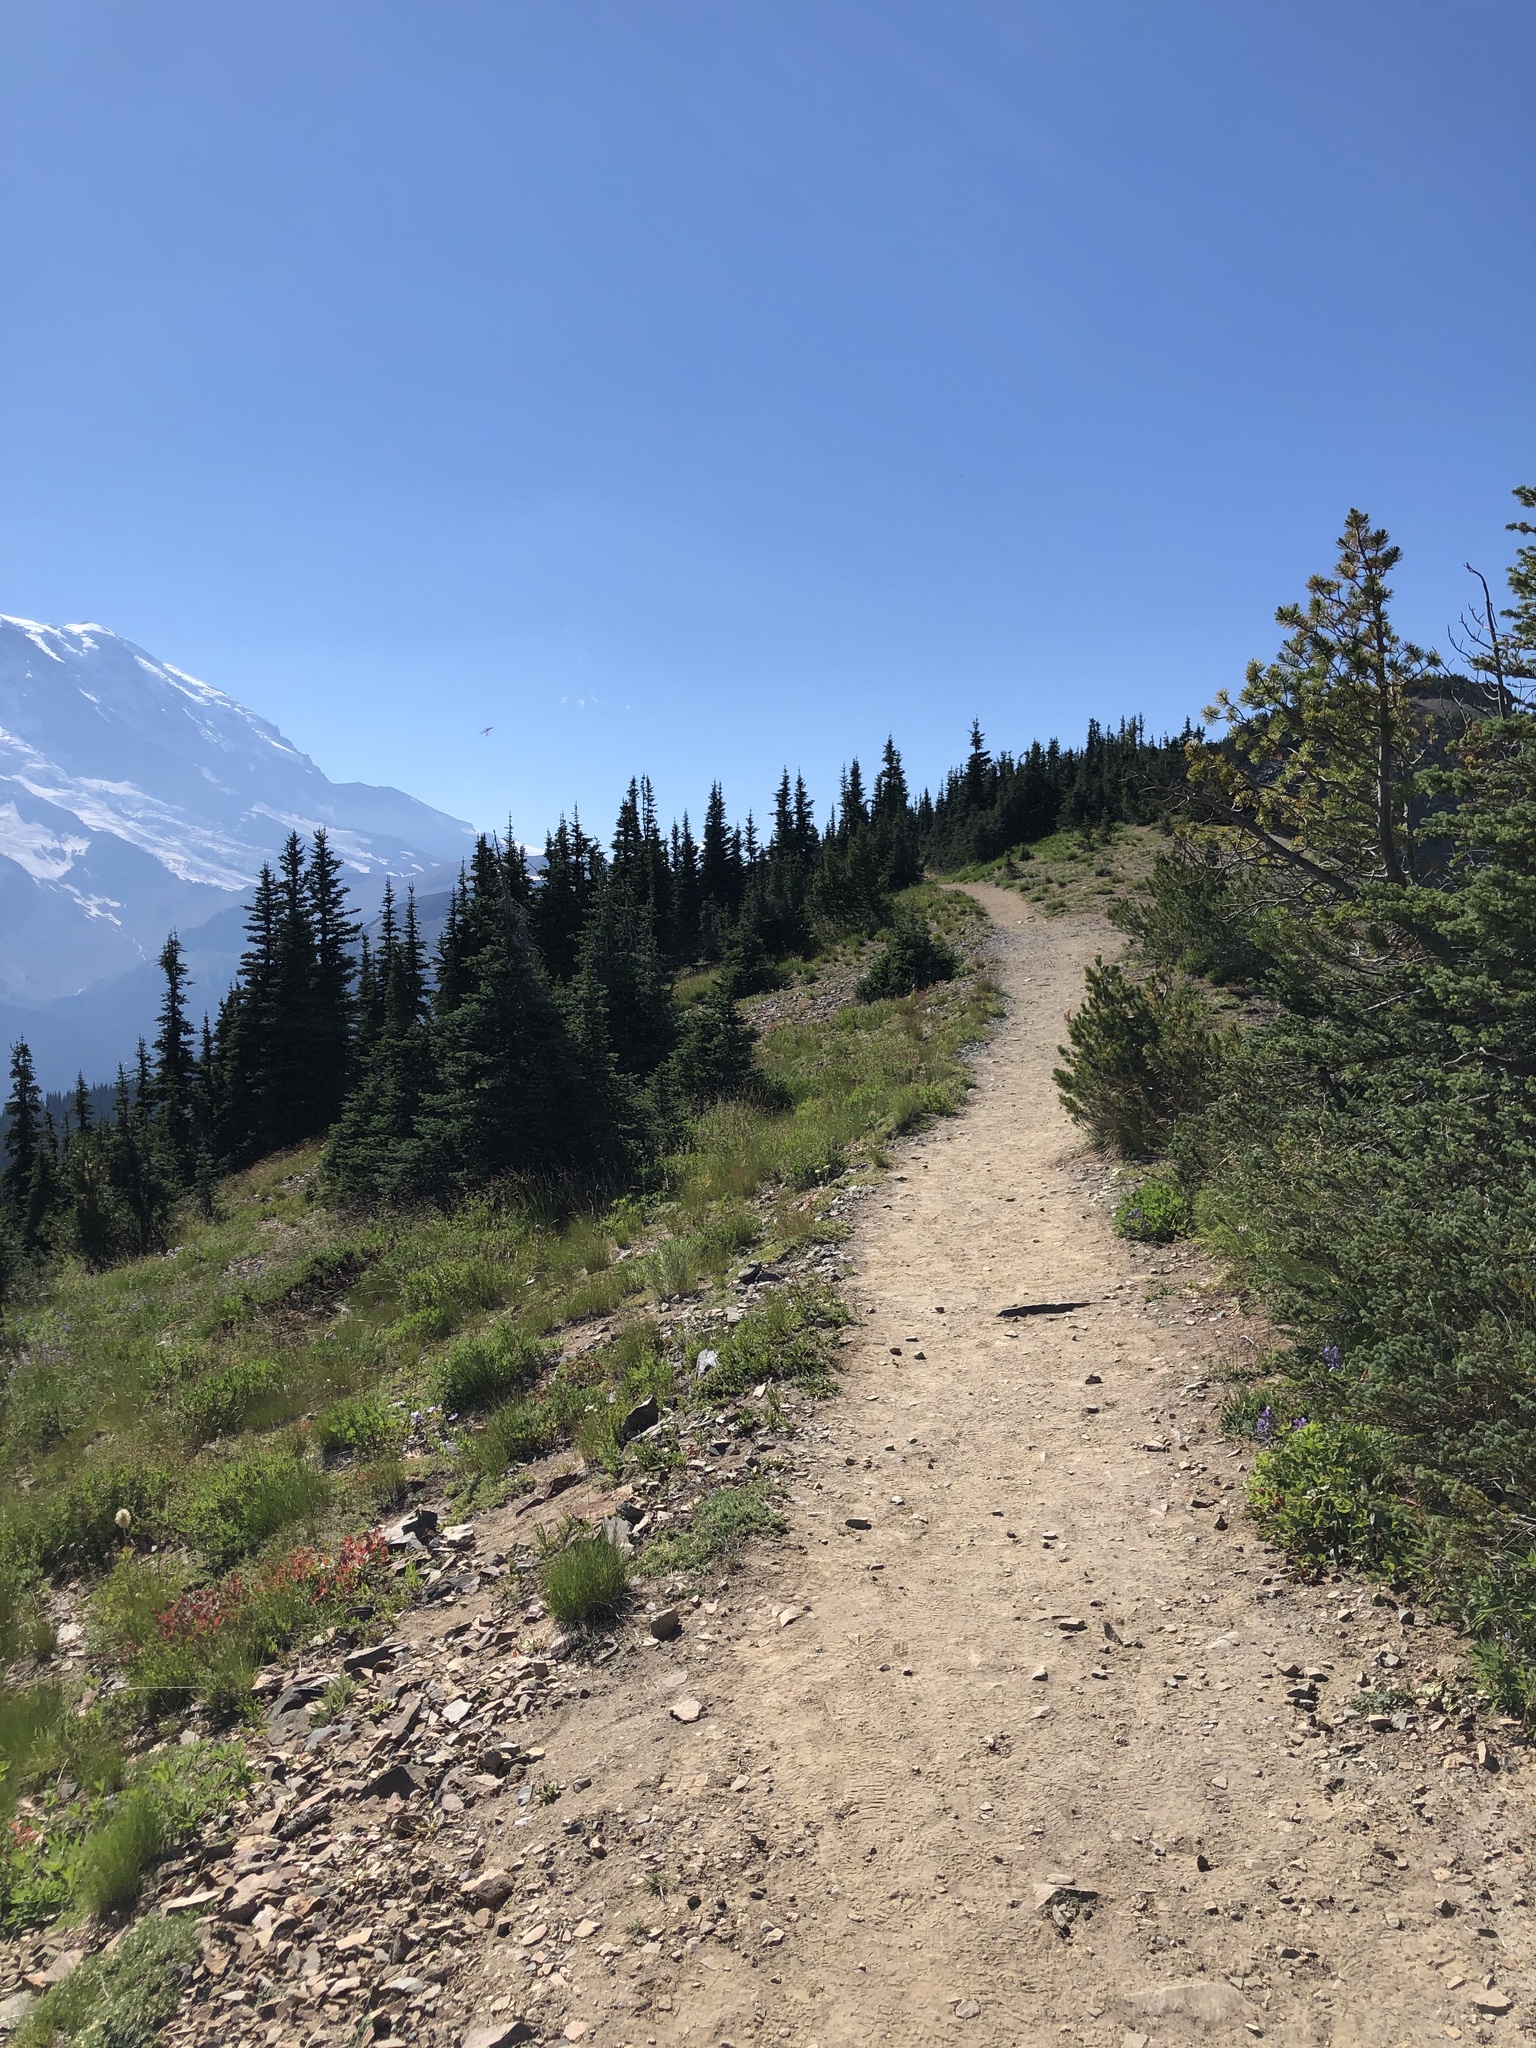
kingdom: Plantae
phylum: Tracheophyta
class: Pinopsida
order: Pinales
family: Pinaceae
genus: Pinus
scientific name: Pinus albicaulis
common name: Whitebark pine
